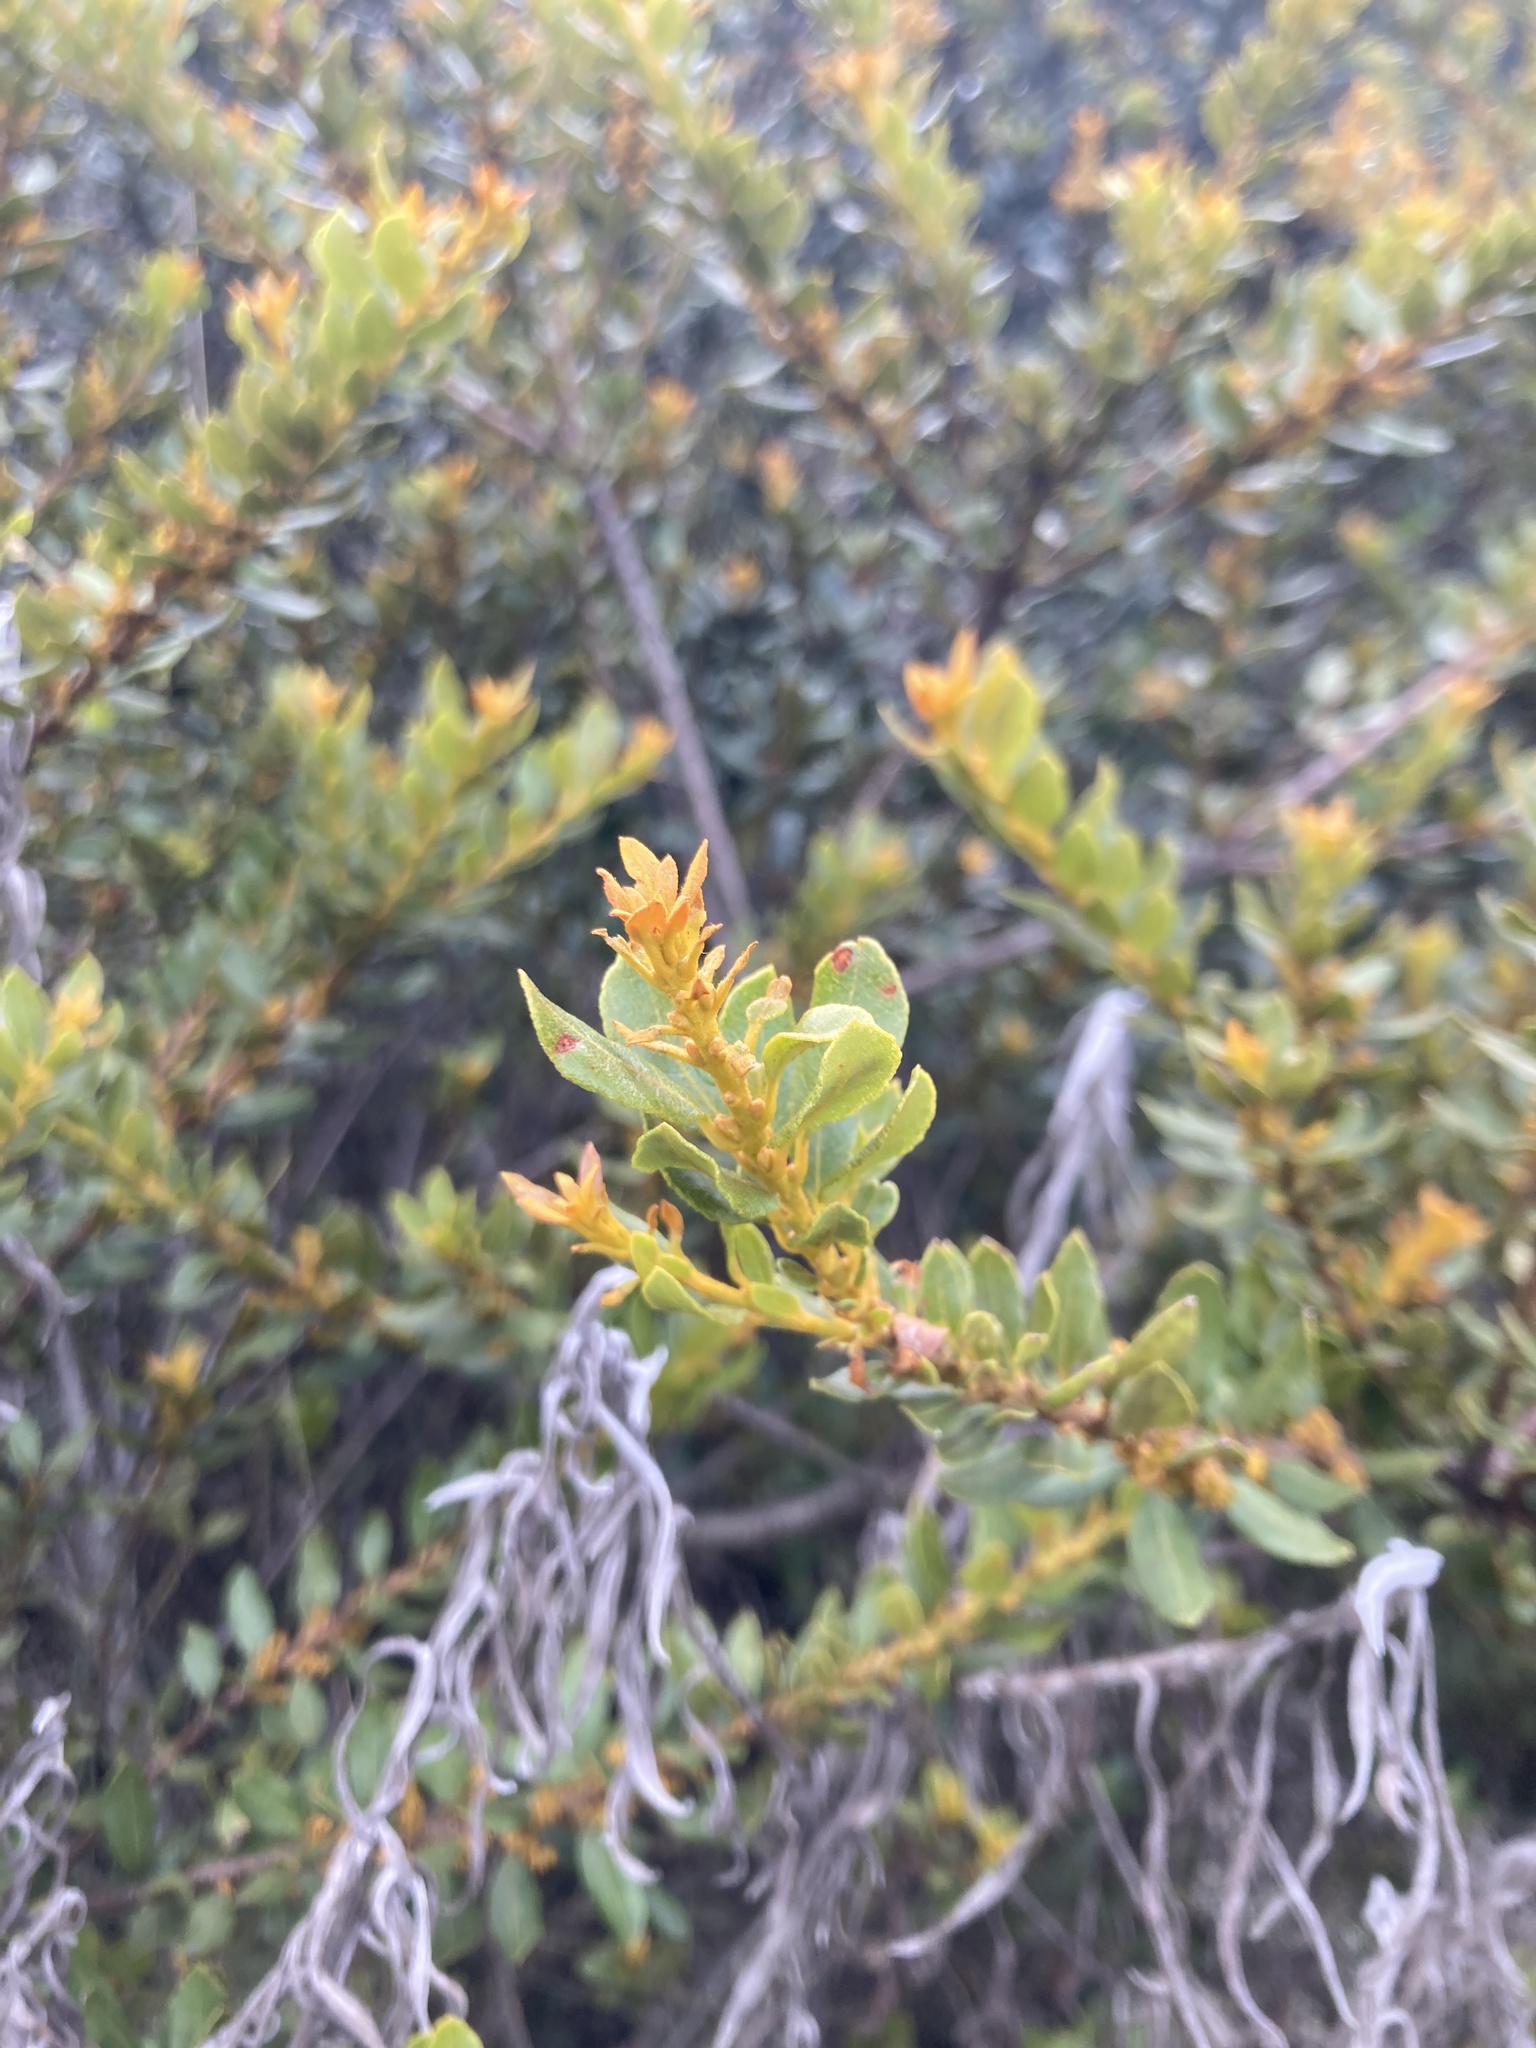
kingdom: Plantae
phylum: Tracheophyta
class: Magnoliopsida
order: Fagales
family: Myricaceae
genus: Morella
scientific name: Morella parvifolia
